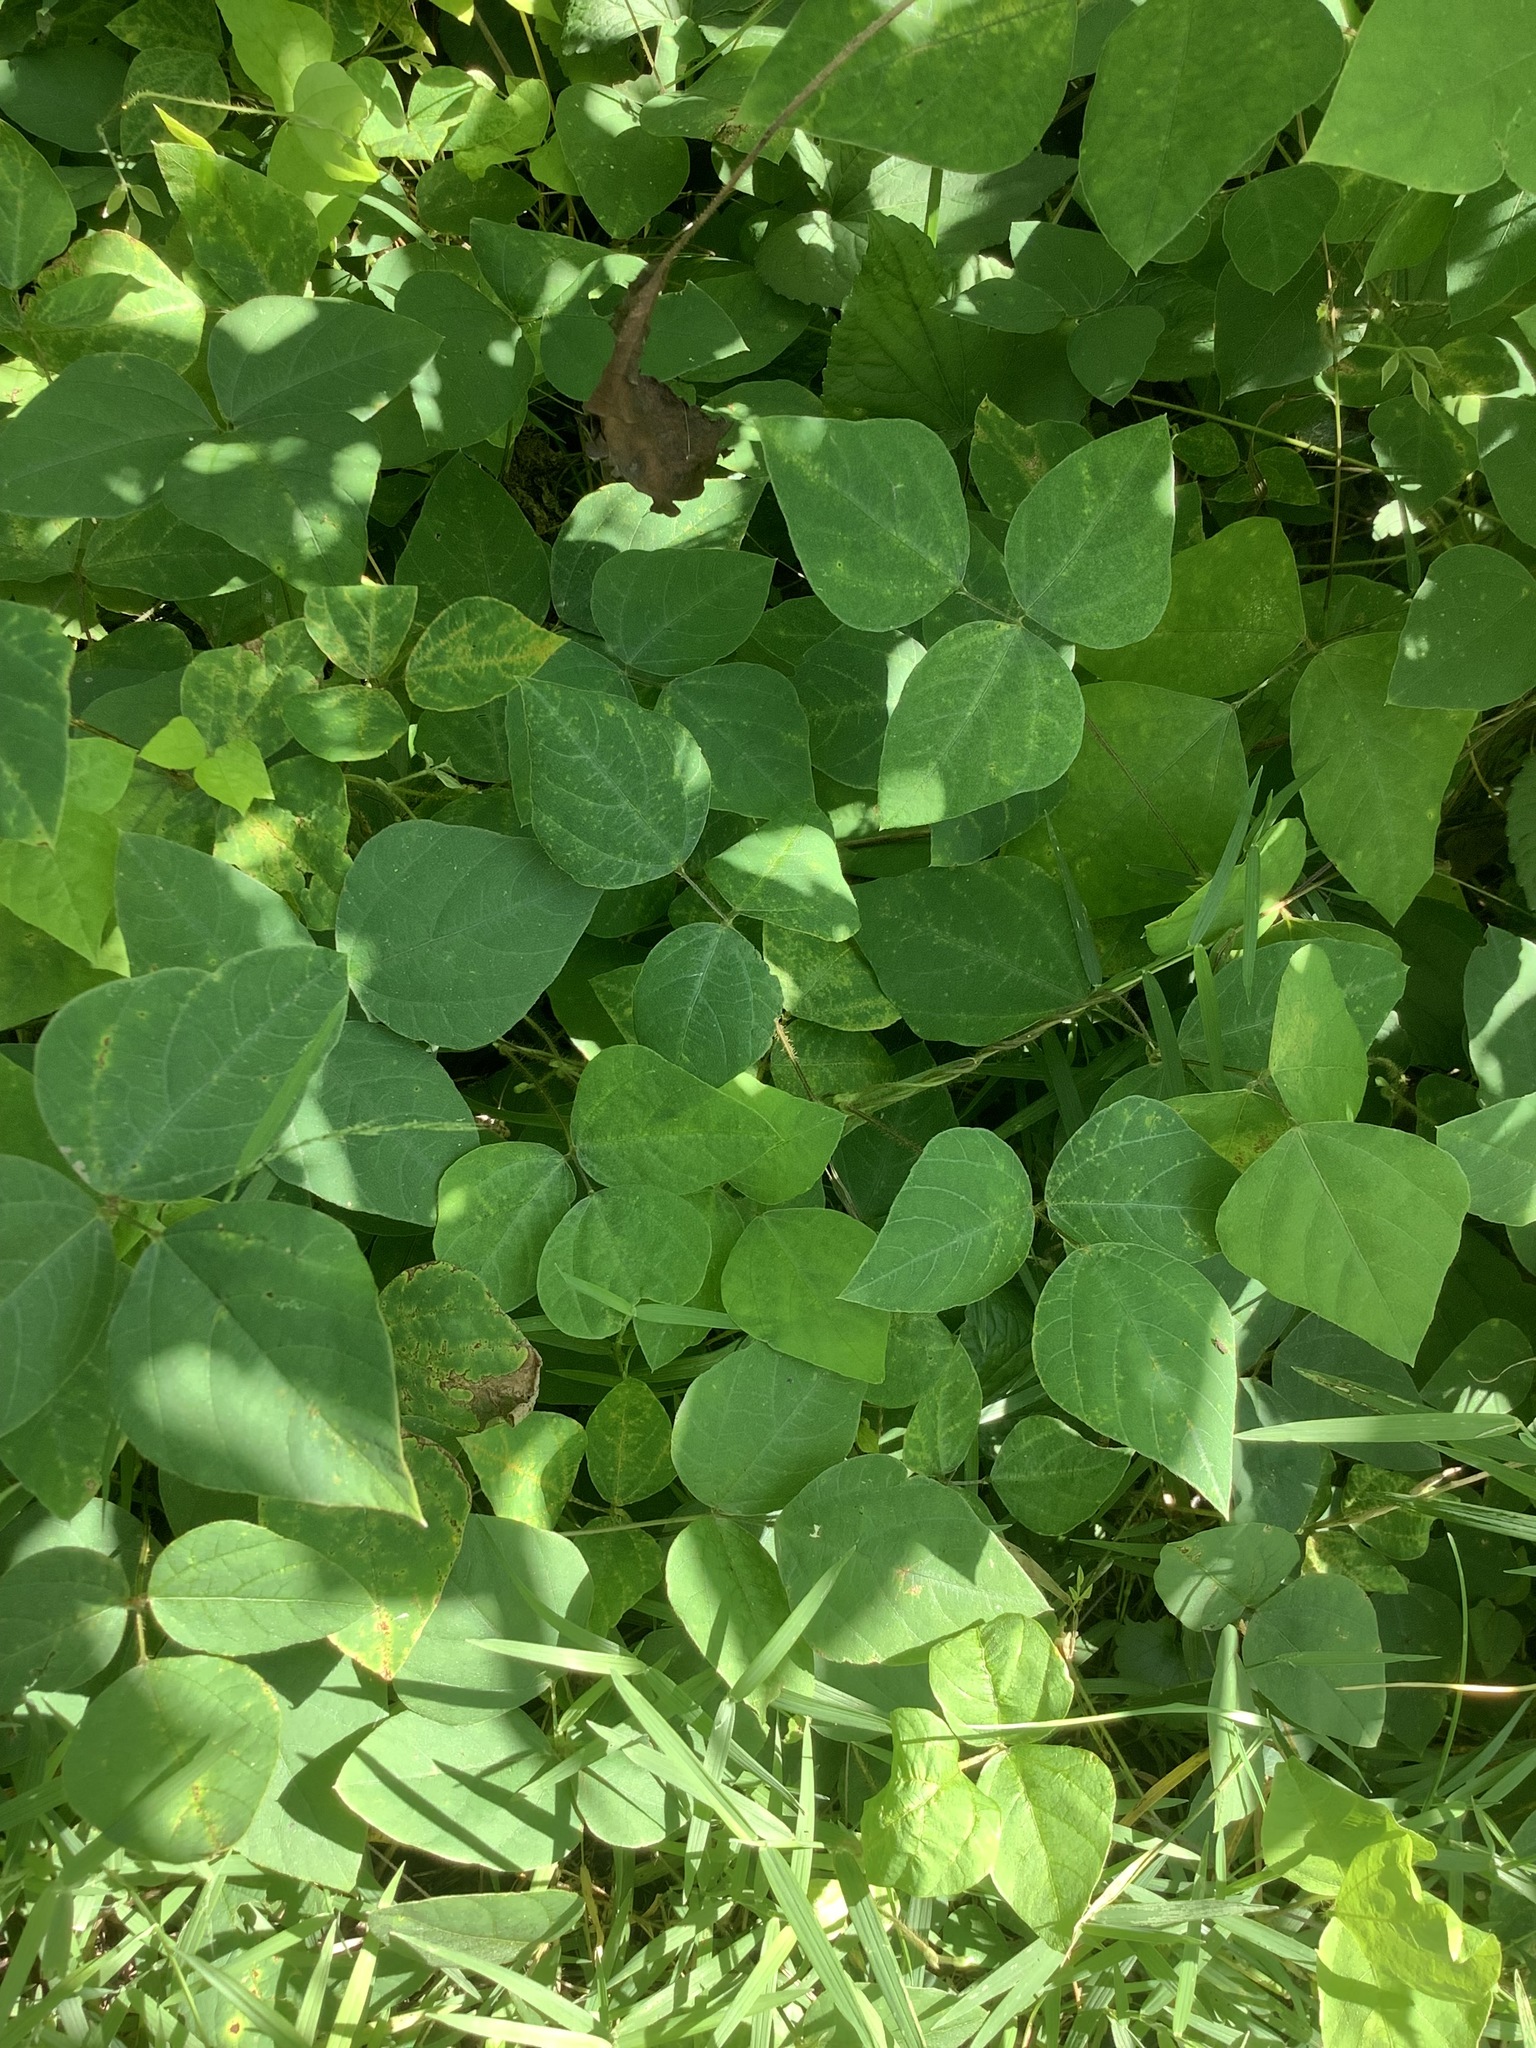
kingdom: Plantae
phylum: Tracheophyta
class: Magnoliopsida
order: Fabales
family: Fabaceae
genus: Amphicarpaea
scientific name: Amphicarpaea bracteata
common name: American hog peanut
